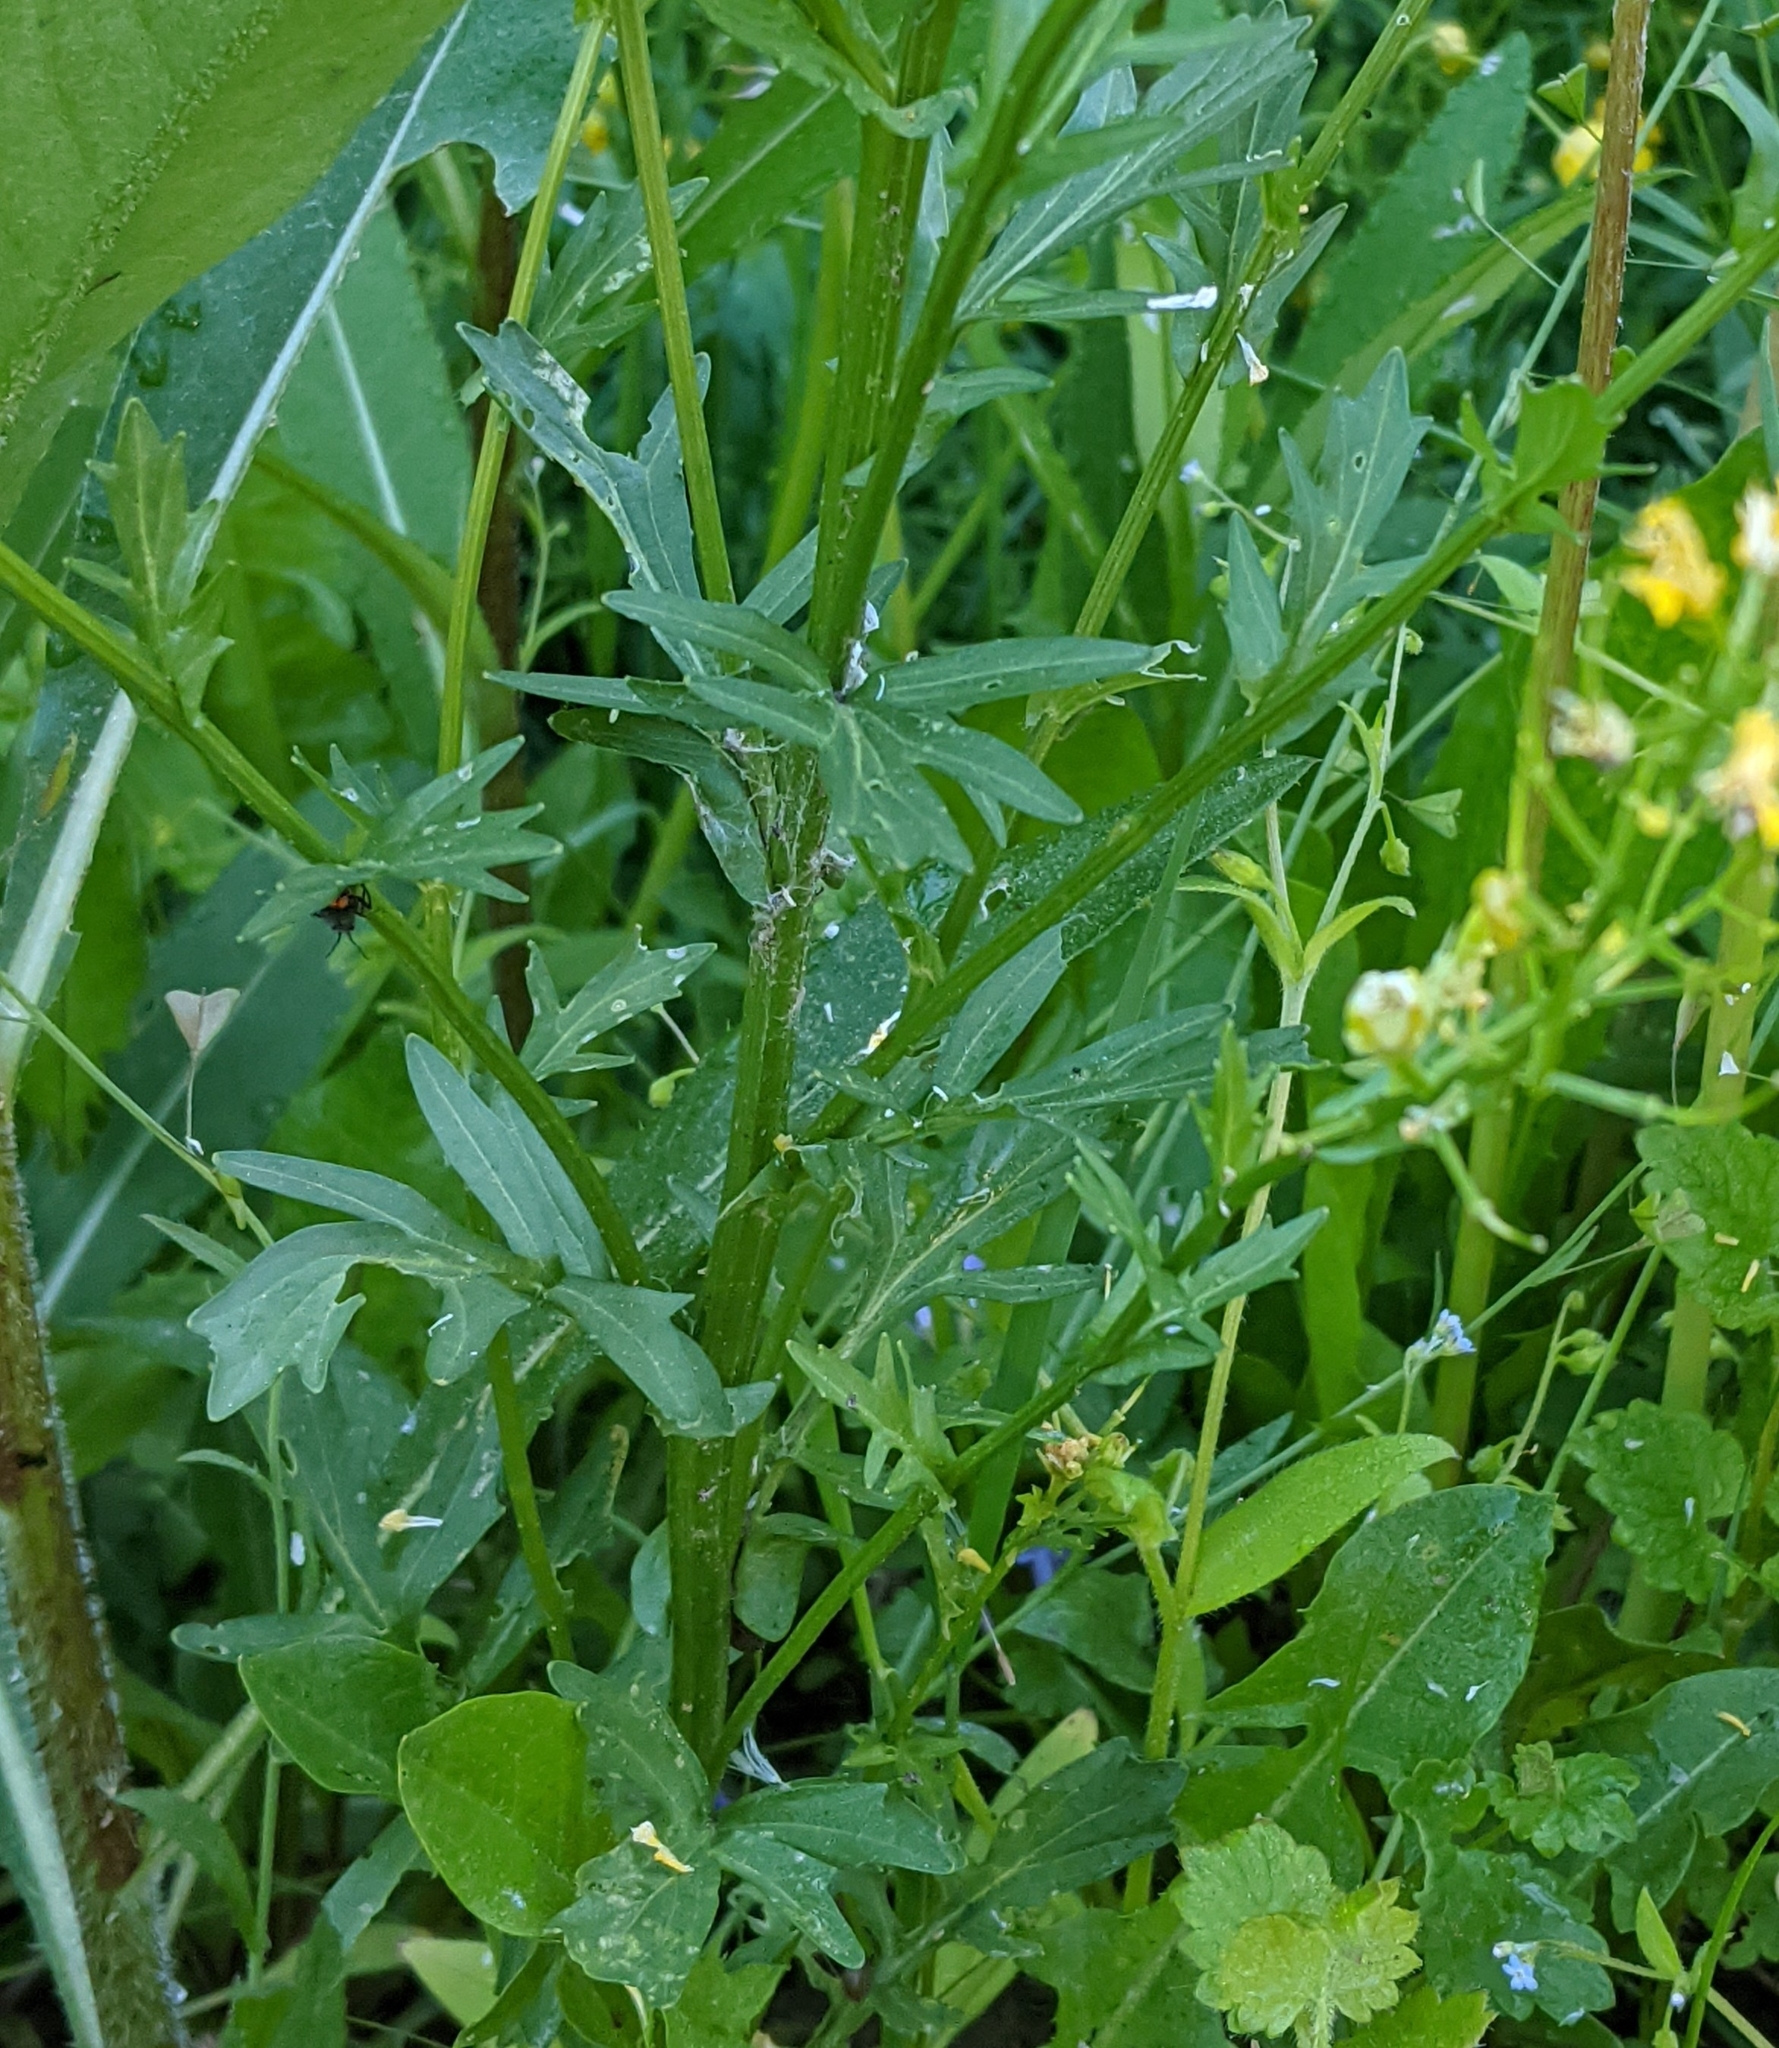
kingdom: Plantae
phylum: Tracheophyta
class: Magnoliopsida
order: Brassicales
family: Brassicaceae
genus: Barbarea
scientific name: Barbarea vulgaris
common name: Cressy-greens
